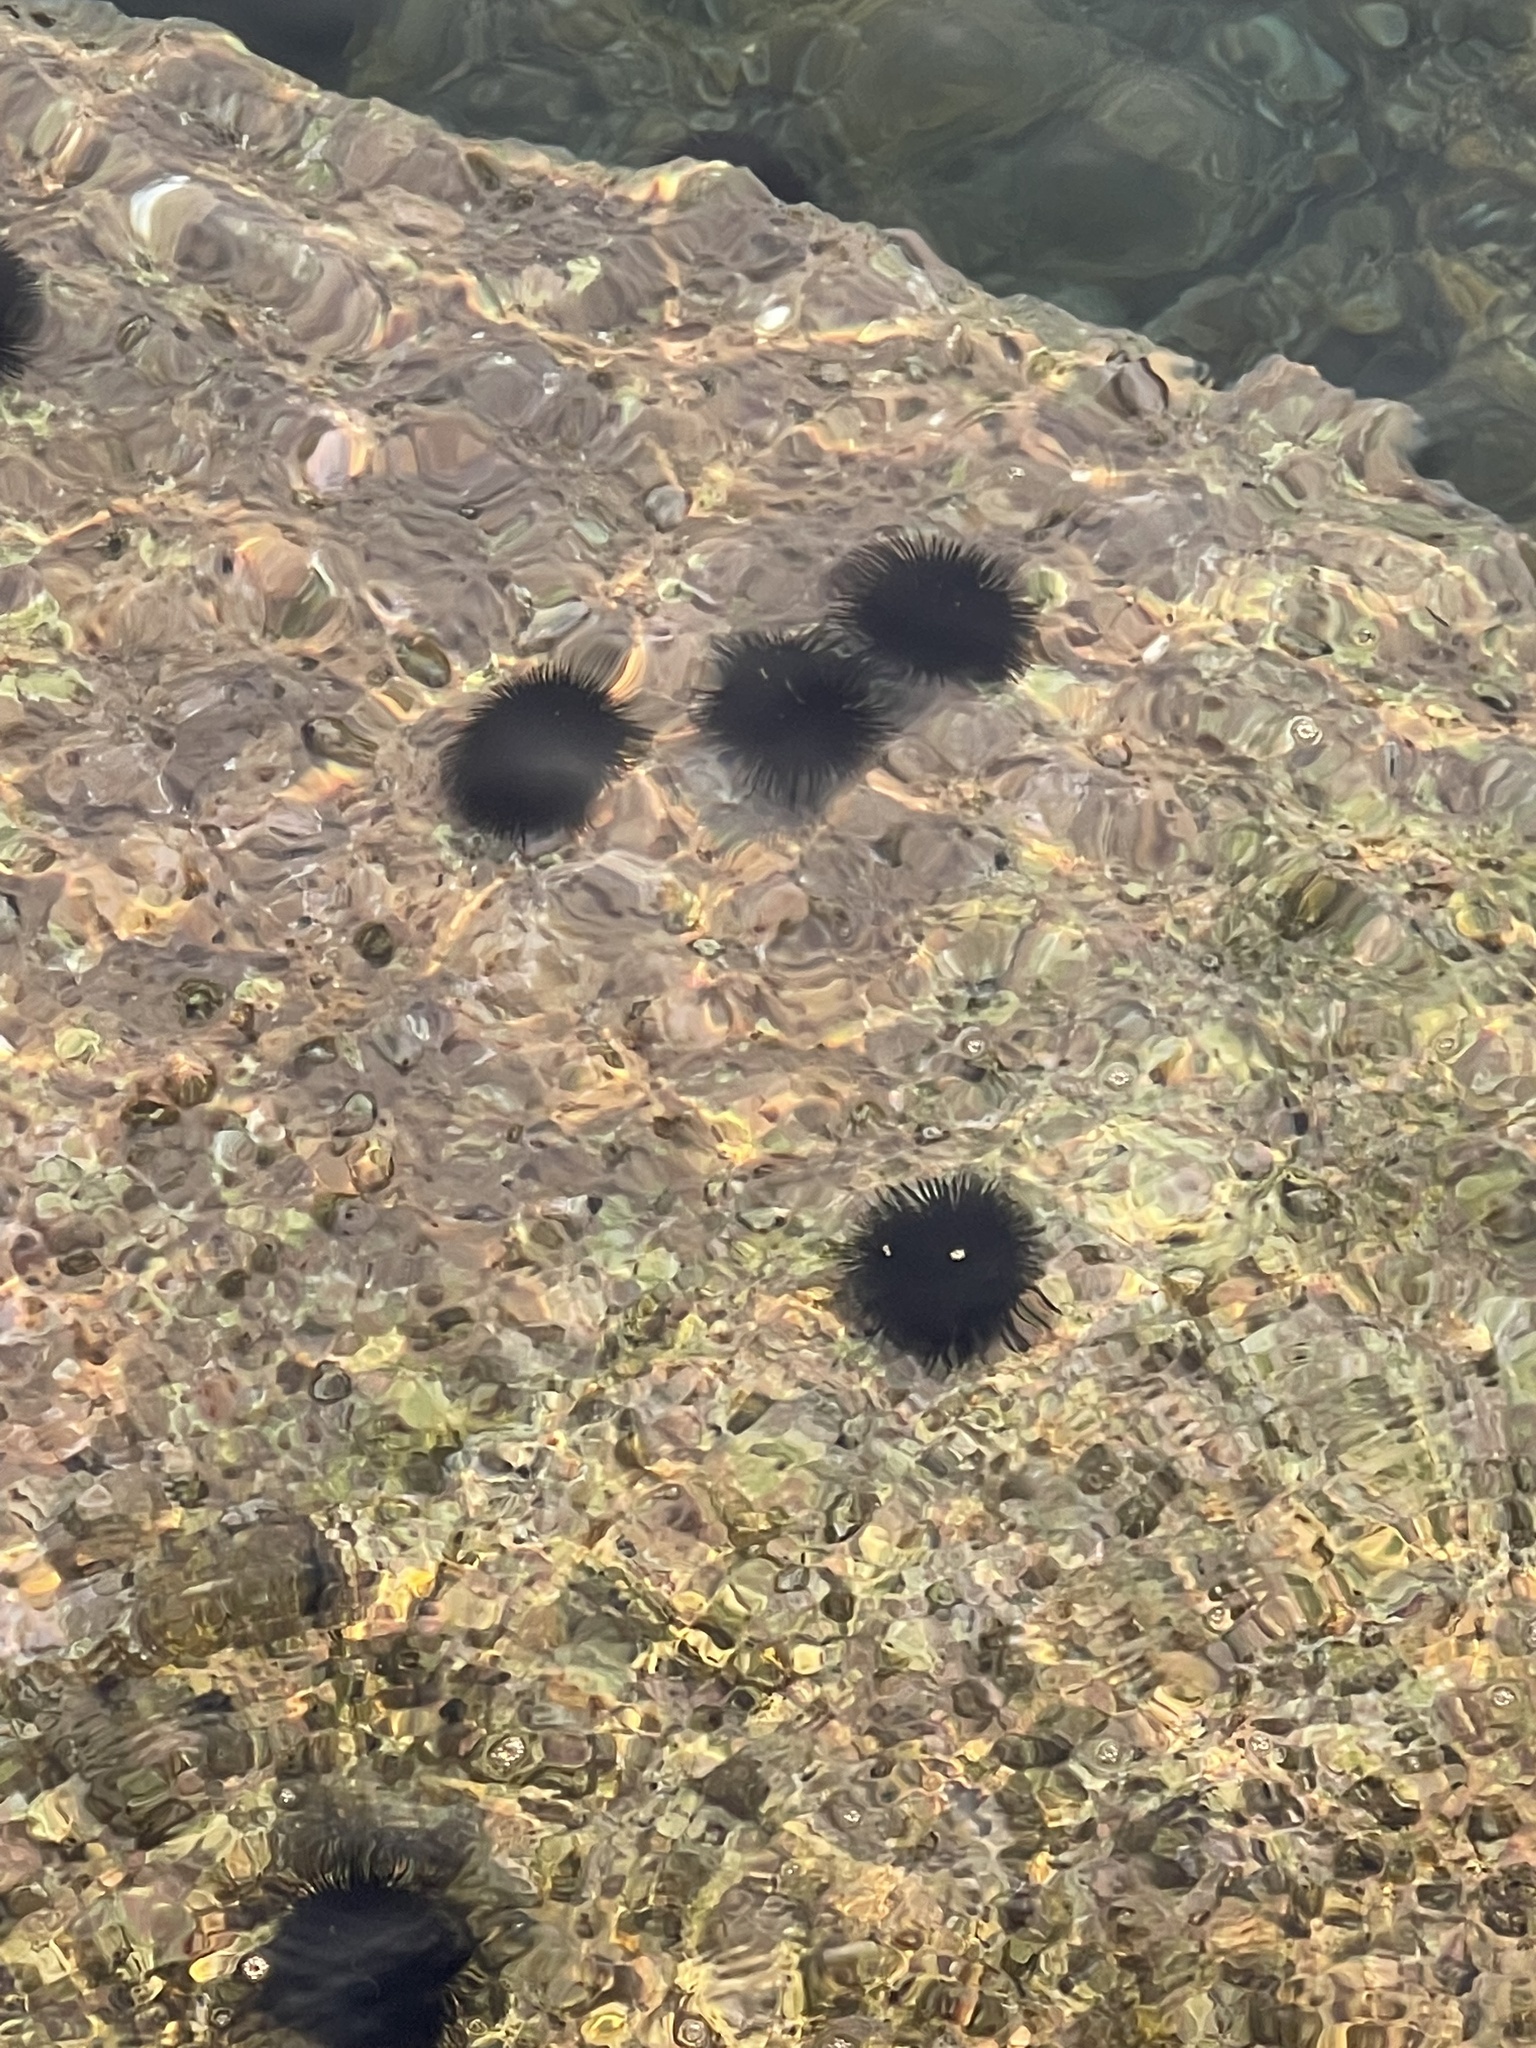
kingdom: Animalia
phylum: Echinodermata
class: Echinoidea
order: Arbacioida
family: Arbaciidae
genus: Arbacia
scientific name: Arbacia lixula
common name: Black sea urchin
